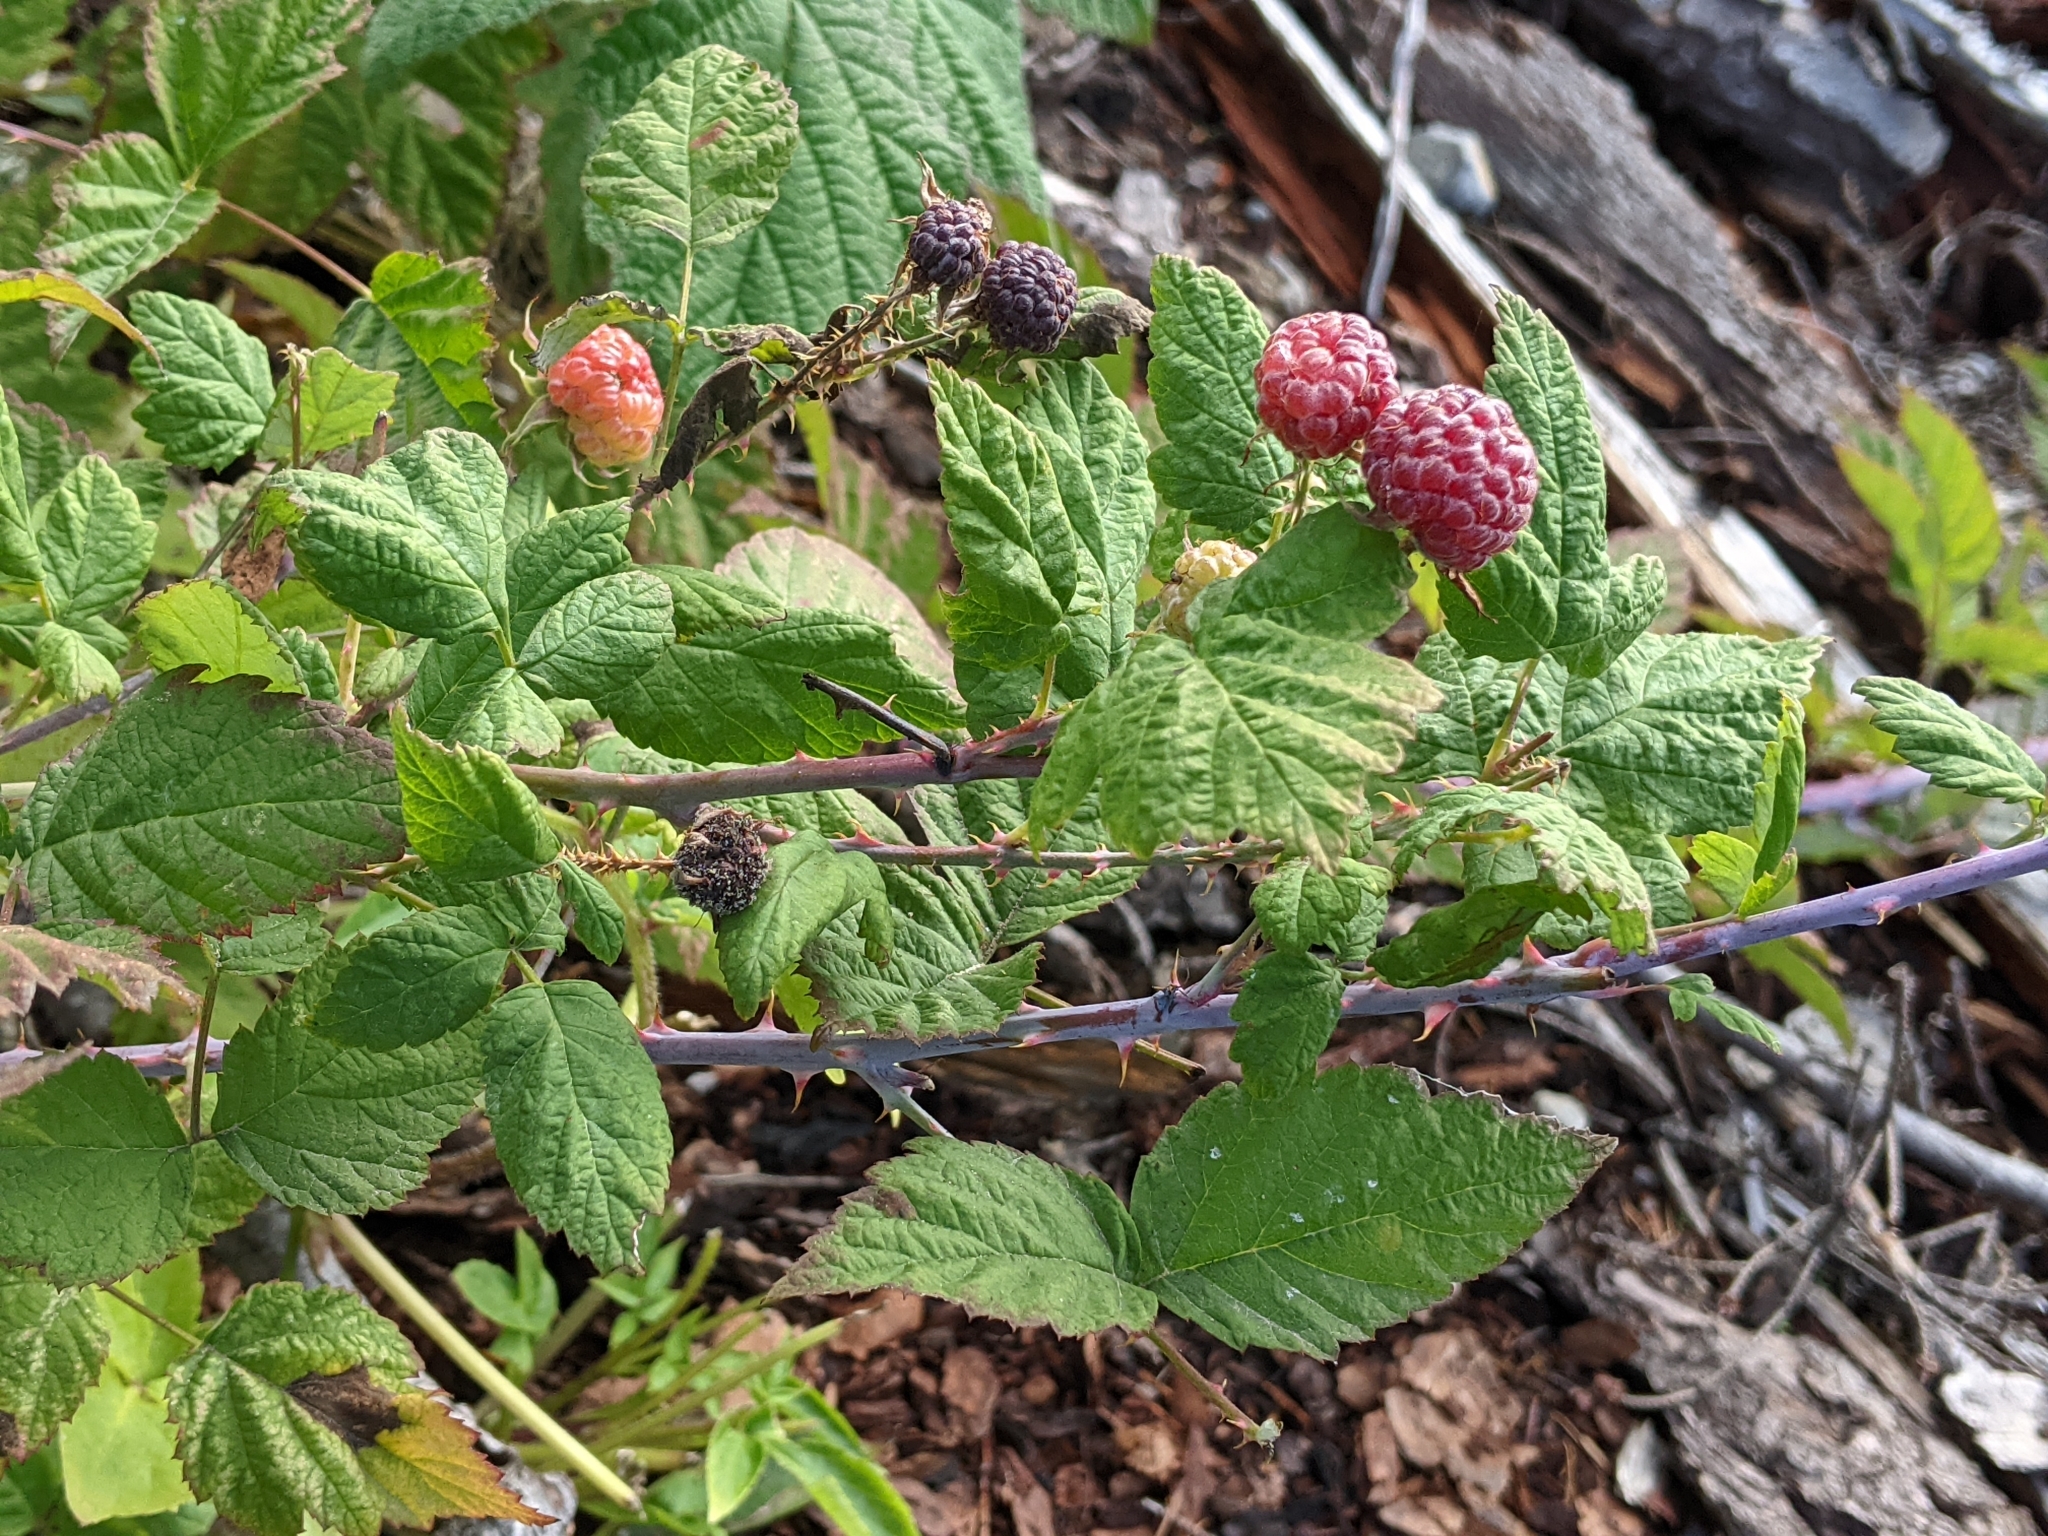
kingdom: Plantae
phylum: Tracheophyta
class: Magnoliopsida
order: Rosales
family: Rosaceae
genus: Rubus
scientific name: Rubus leucodermis
